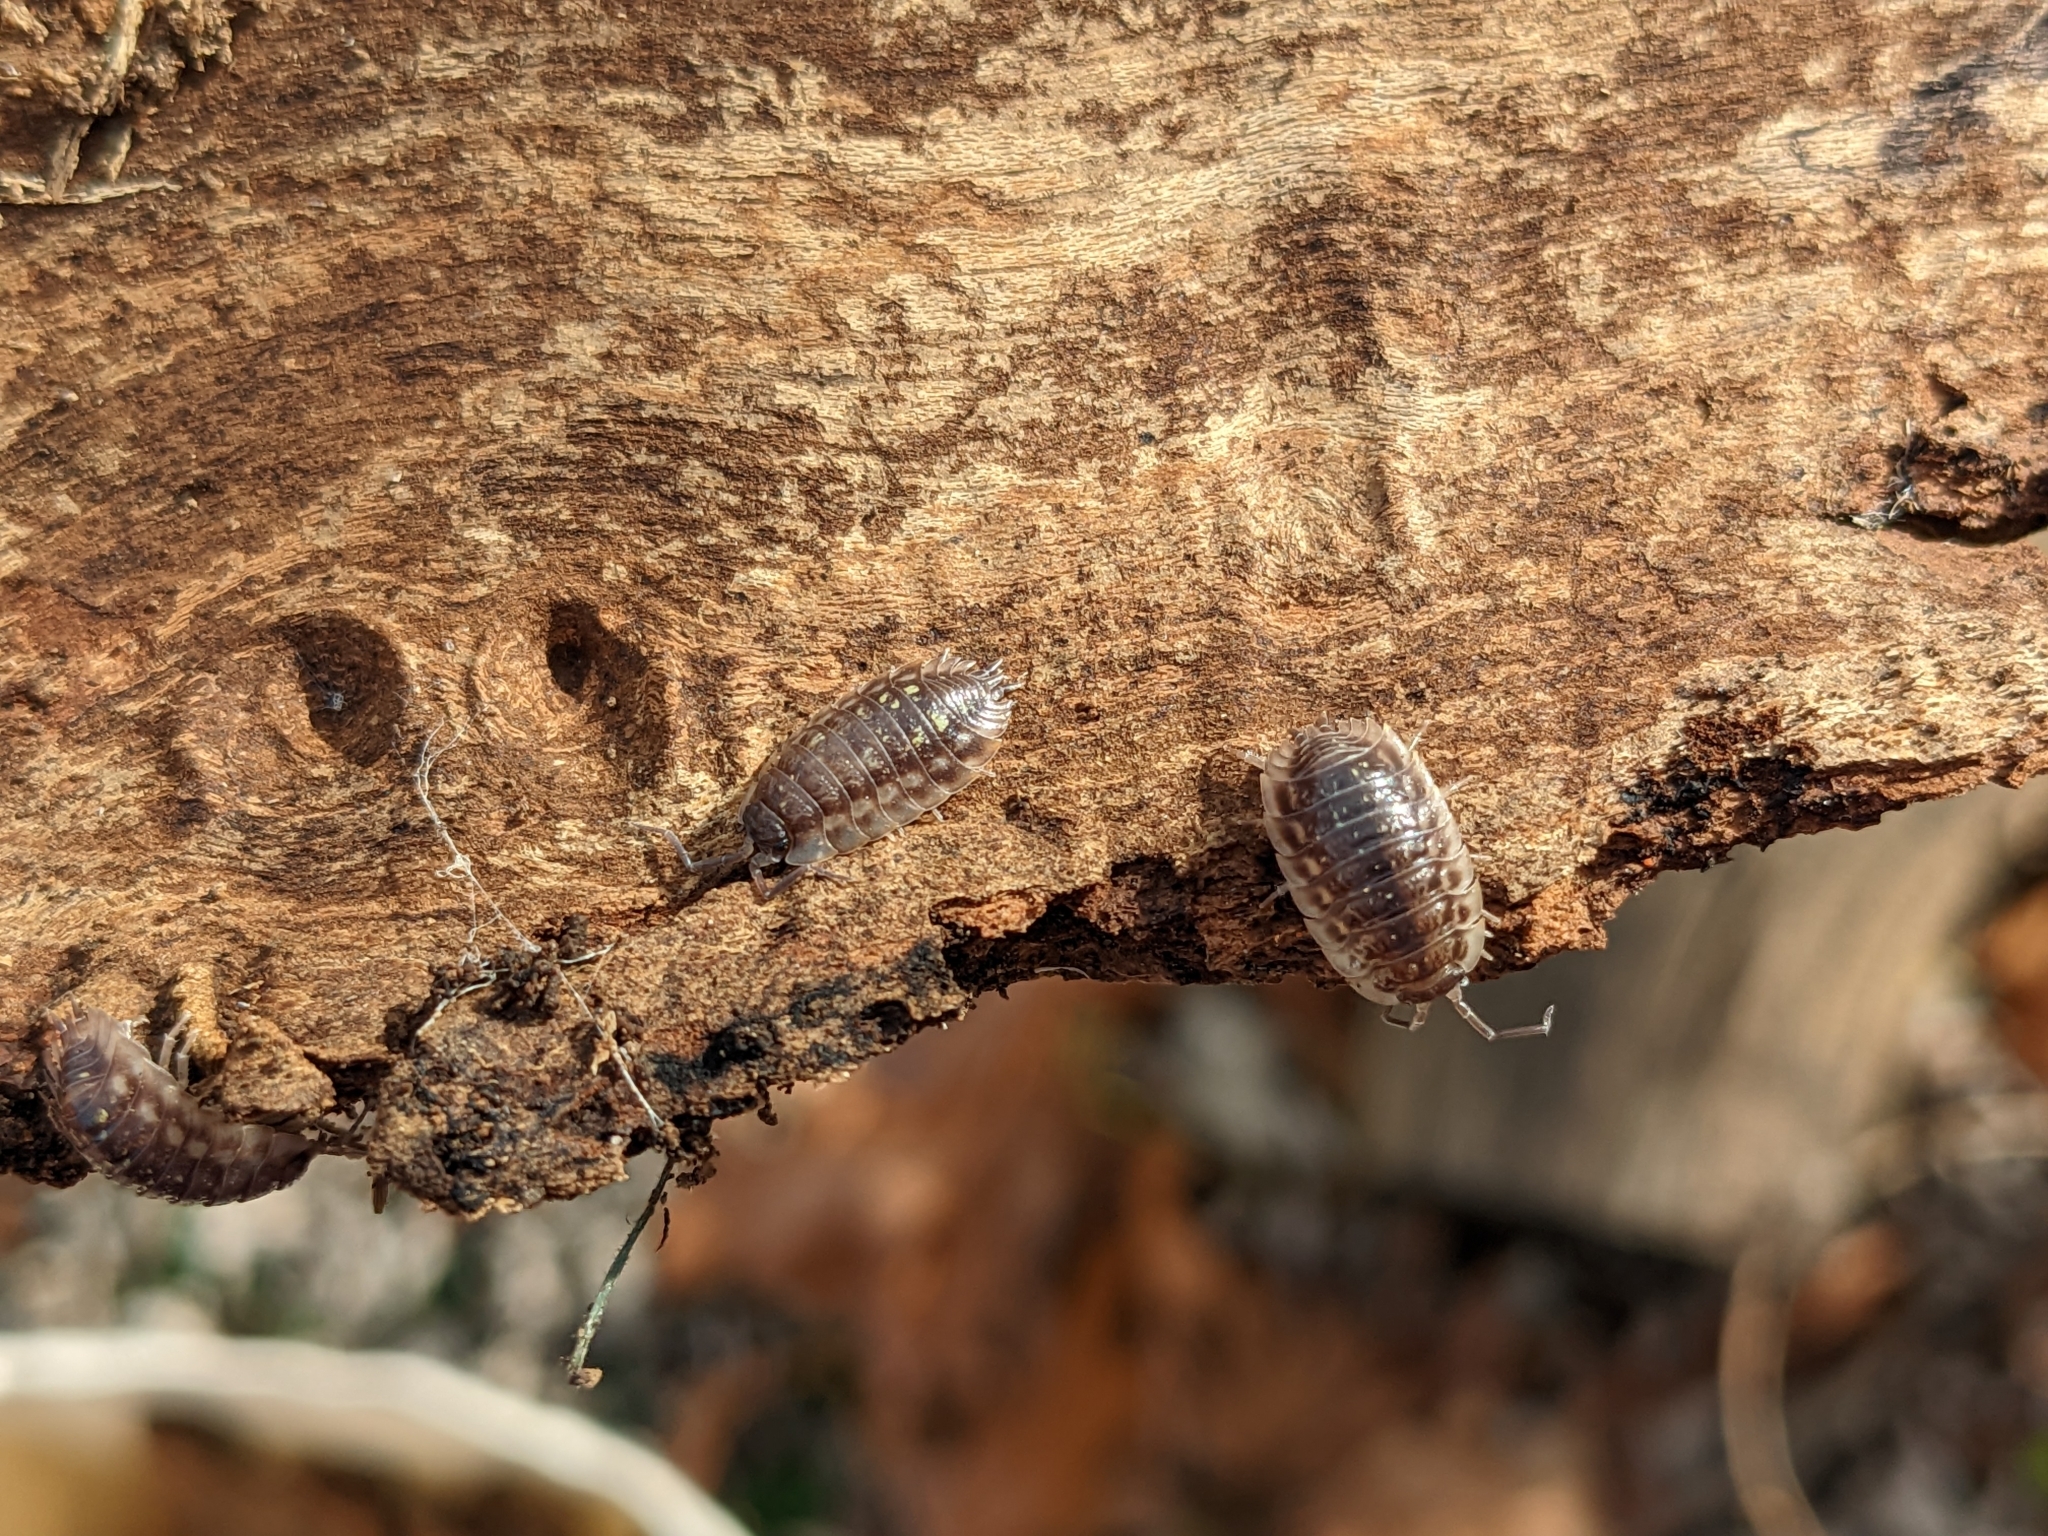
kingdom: Animalia
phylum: Arthropoda
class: Malacostraca
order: Isopoda
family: Oniscidae
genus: Oniscus
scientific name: Oniscus asellus
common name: Common shiny woodlouse
